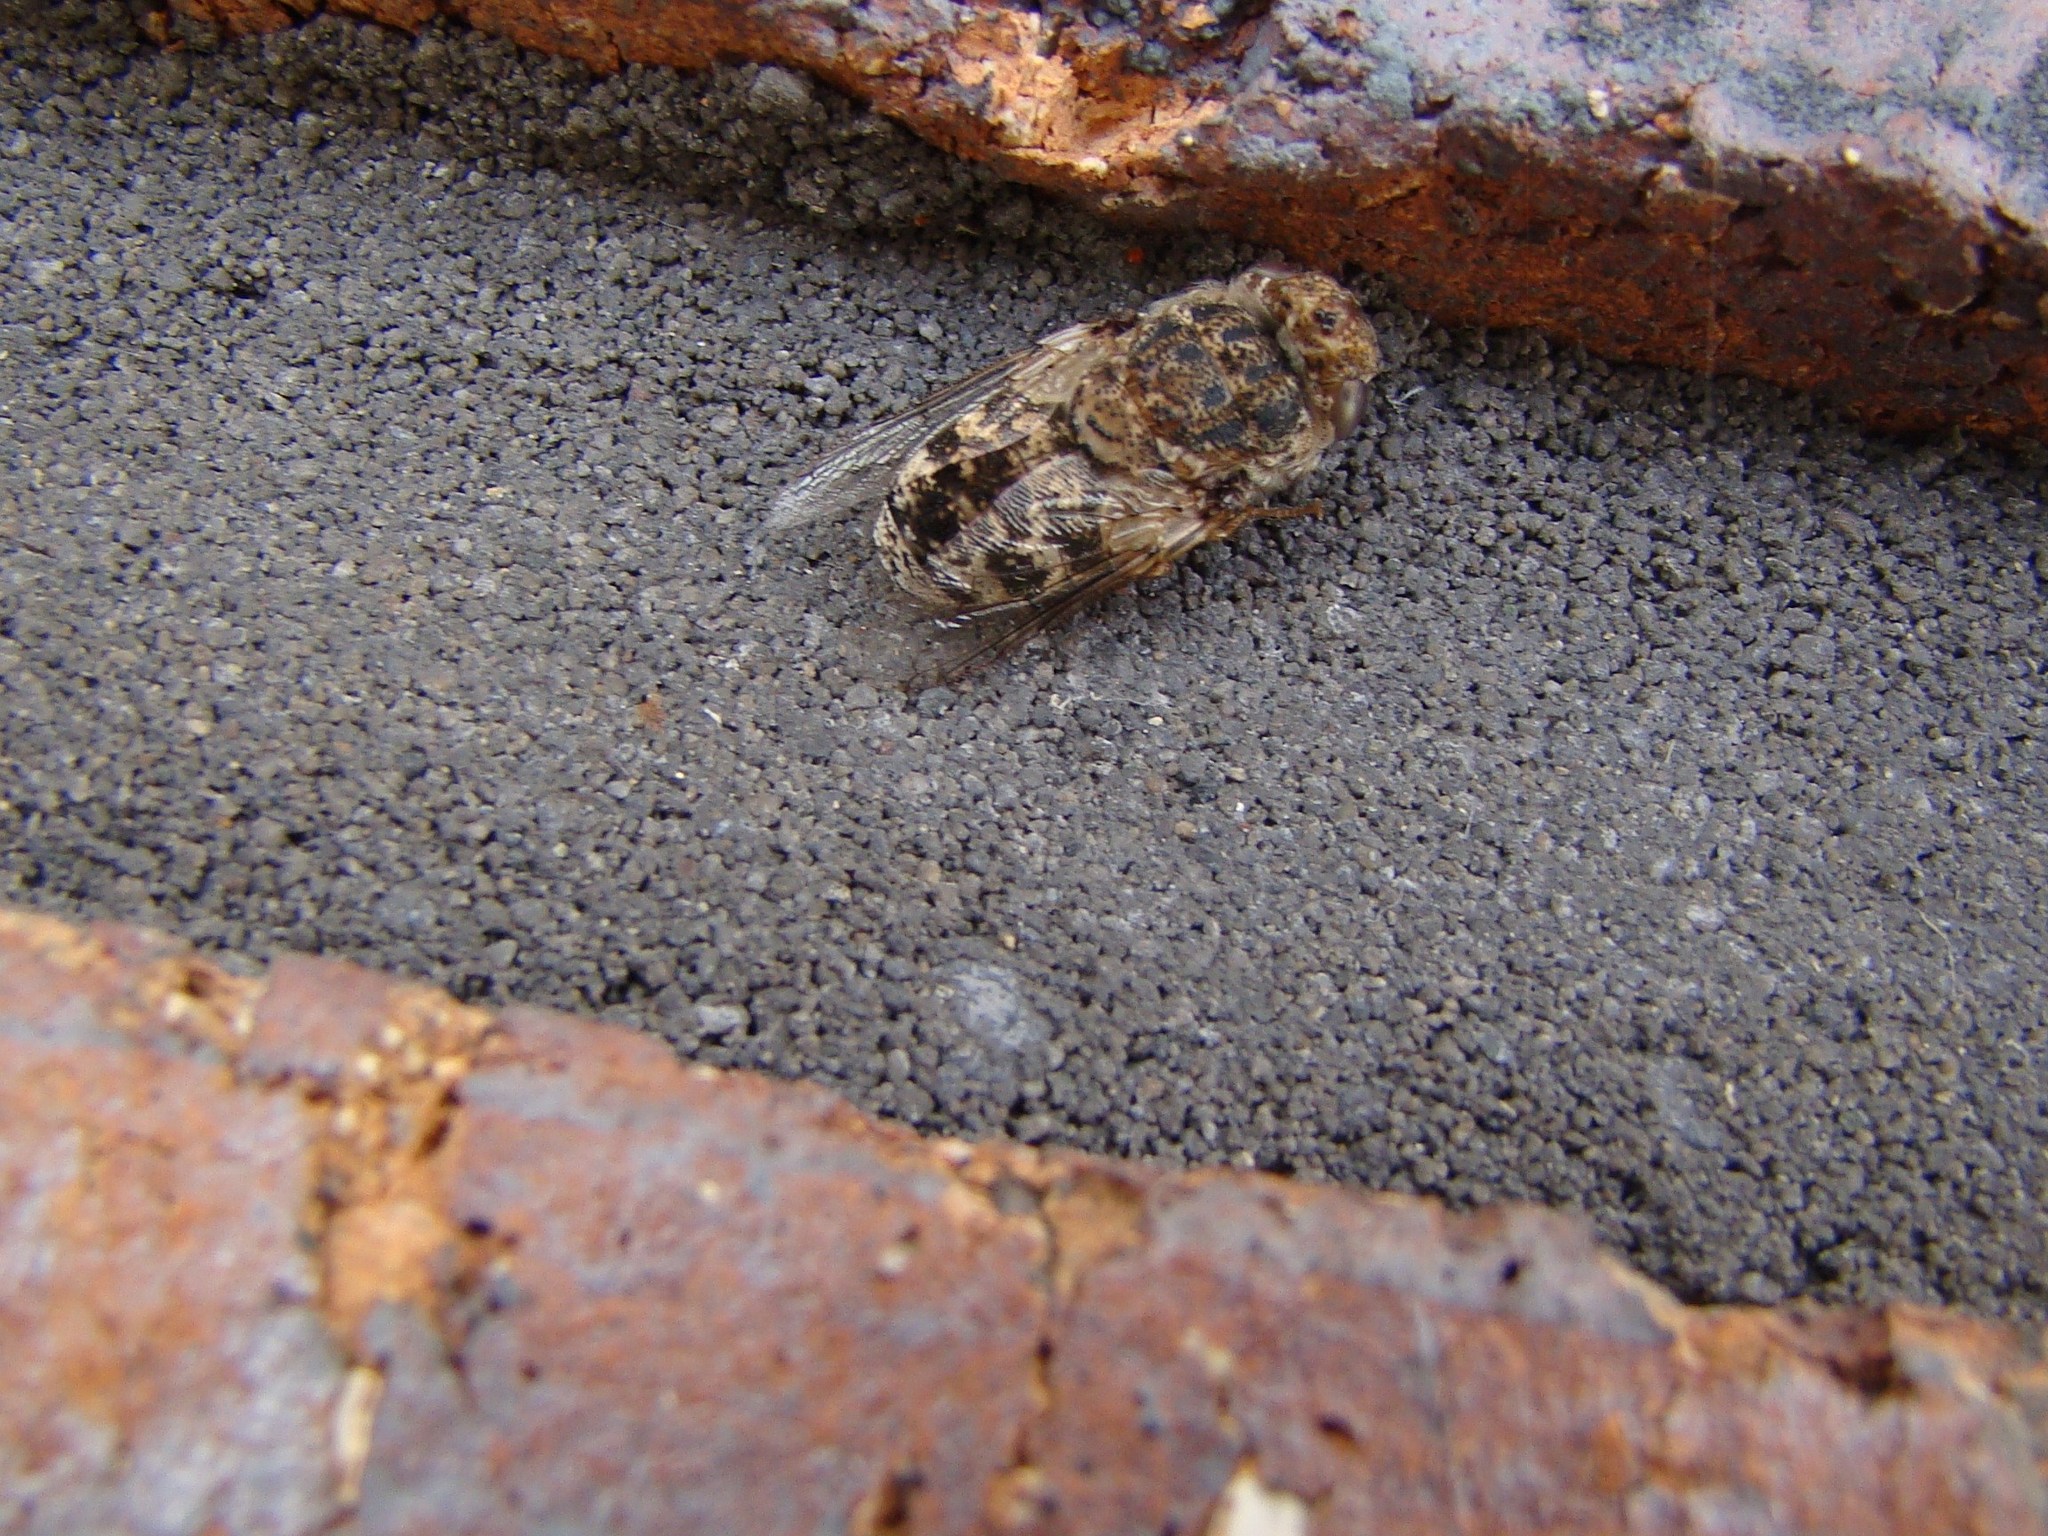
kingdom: Animalia
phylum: Arthropoda
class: Insecta
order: Diptera
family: Oestridae
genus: Oestrus
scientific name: Oestrus ovis
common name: Sheep botfly
